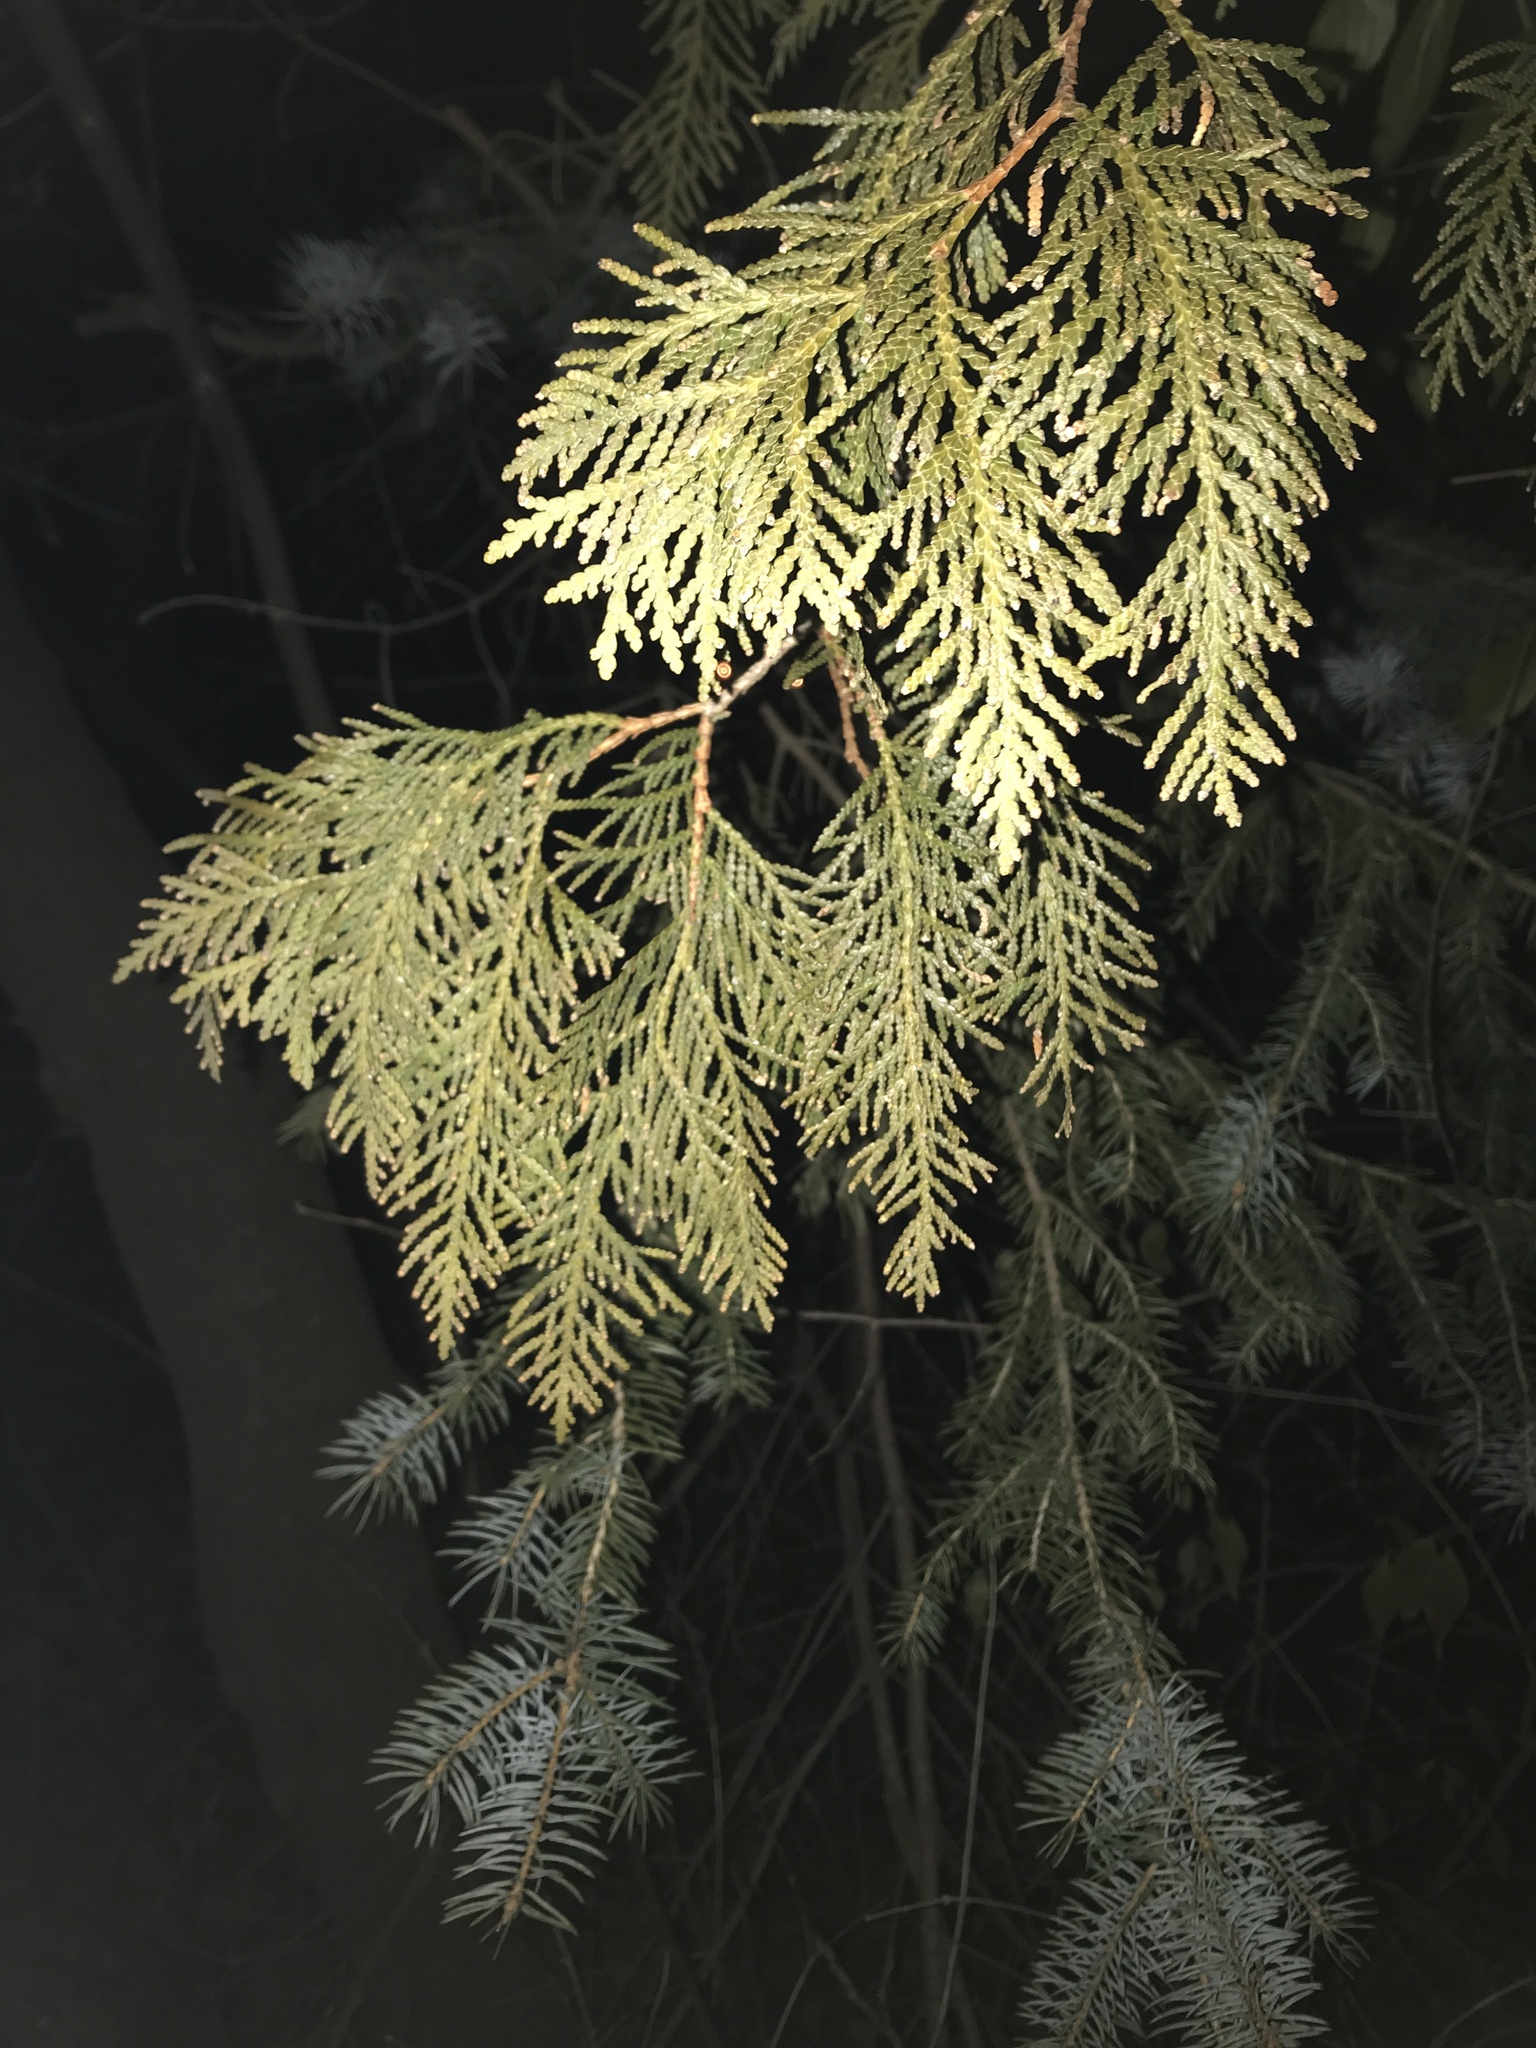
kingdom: Plantae
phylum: Tracheophyta
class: Pinopsida
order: Pinales
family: Cupressaceae
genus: Thuja
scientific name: Thuja occidentalis
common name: Northern white-cedar
